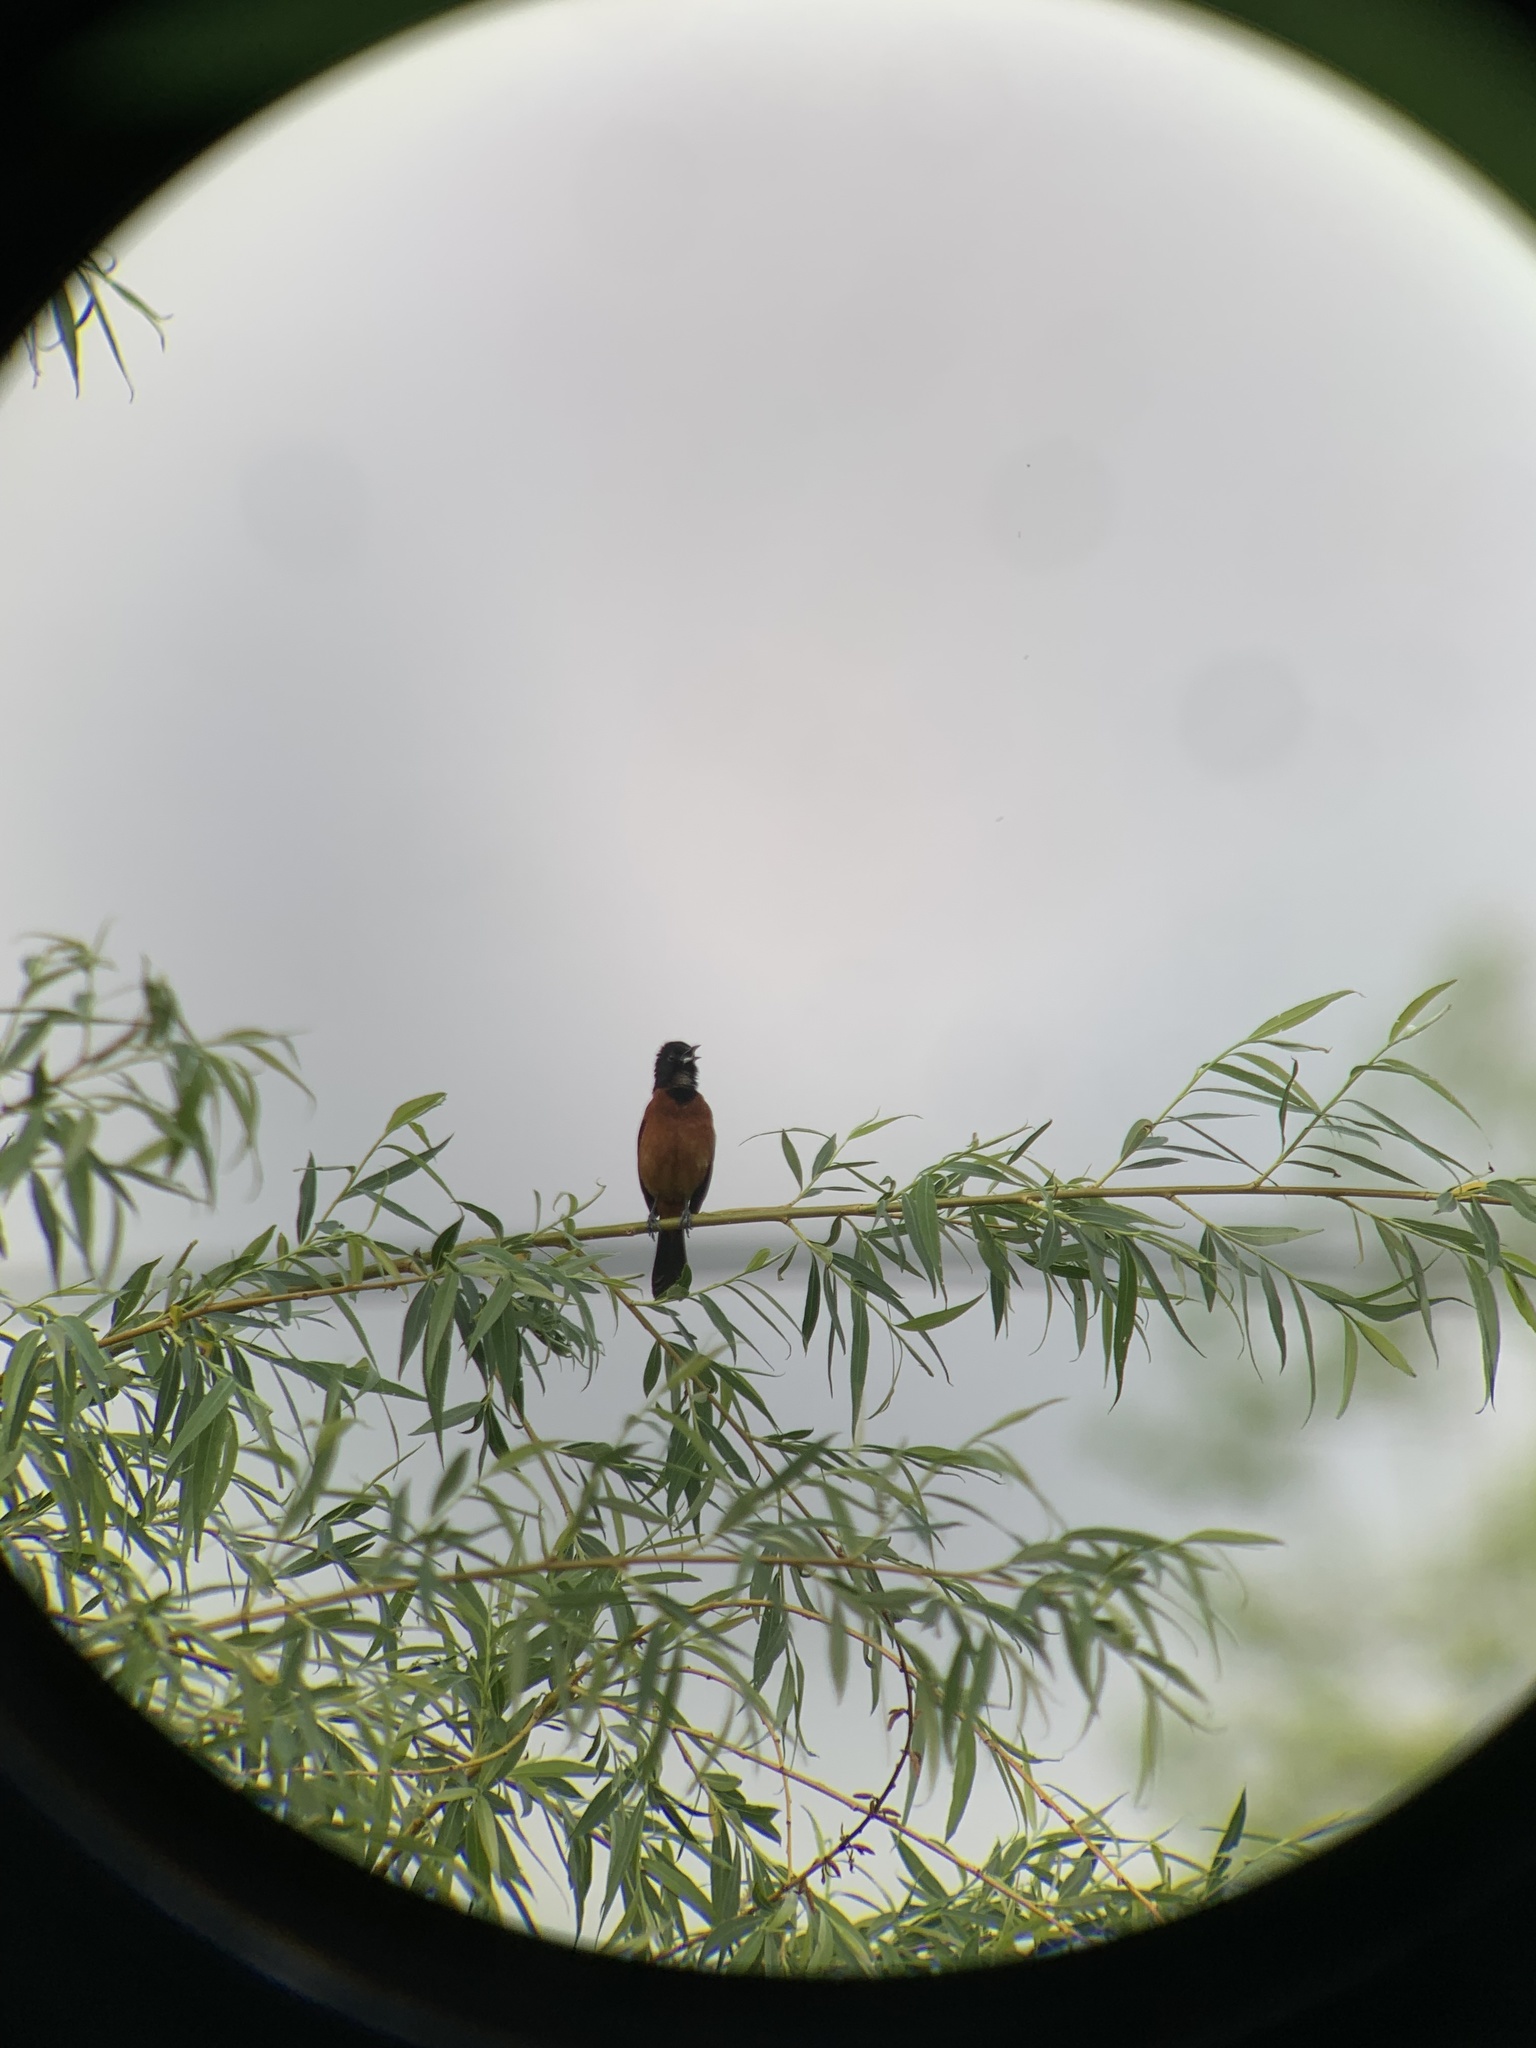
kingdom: Animalia
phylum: Chordata
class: Aves
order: Passeriformes
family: Icteridae
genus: Icterus
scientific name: Icterus spurius
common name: Orchard oriole
